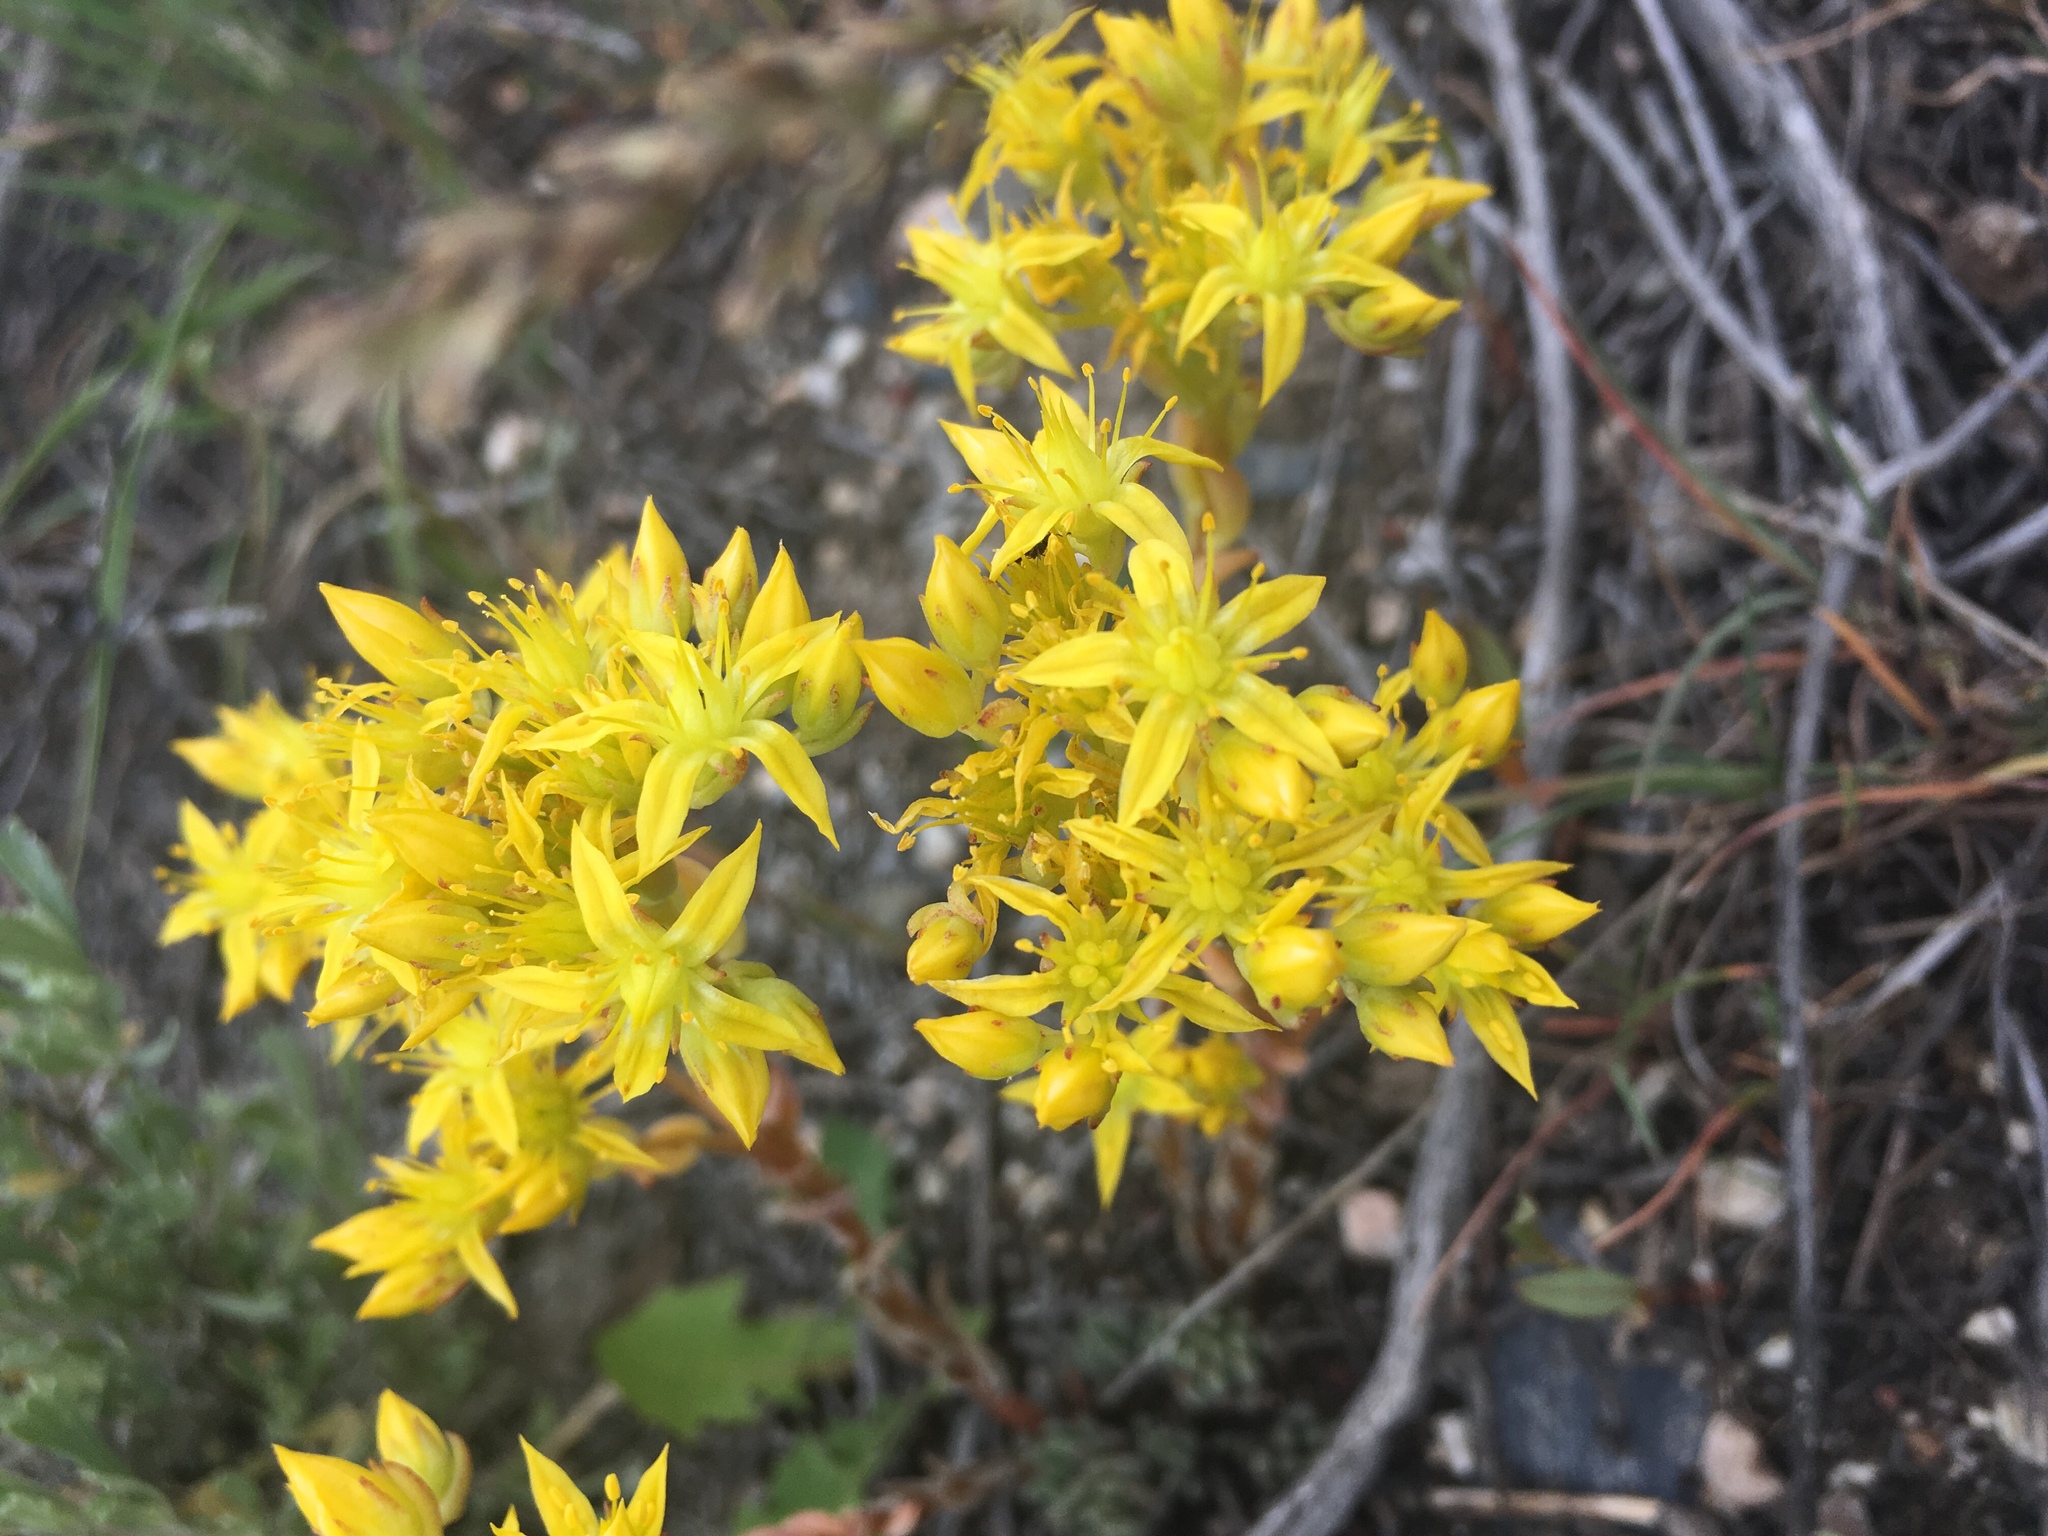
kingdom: Plantae
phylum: Tracheophyta
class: Magnoliopsida
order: Saxifragales
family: Crassulaceae
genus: Sedum
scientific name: Sedum lanceolatum
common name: Common stonecrop
